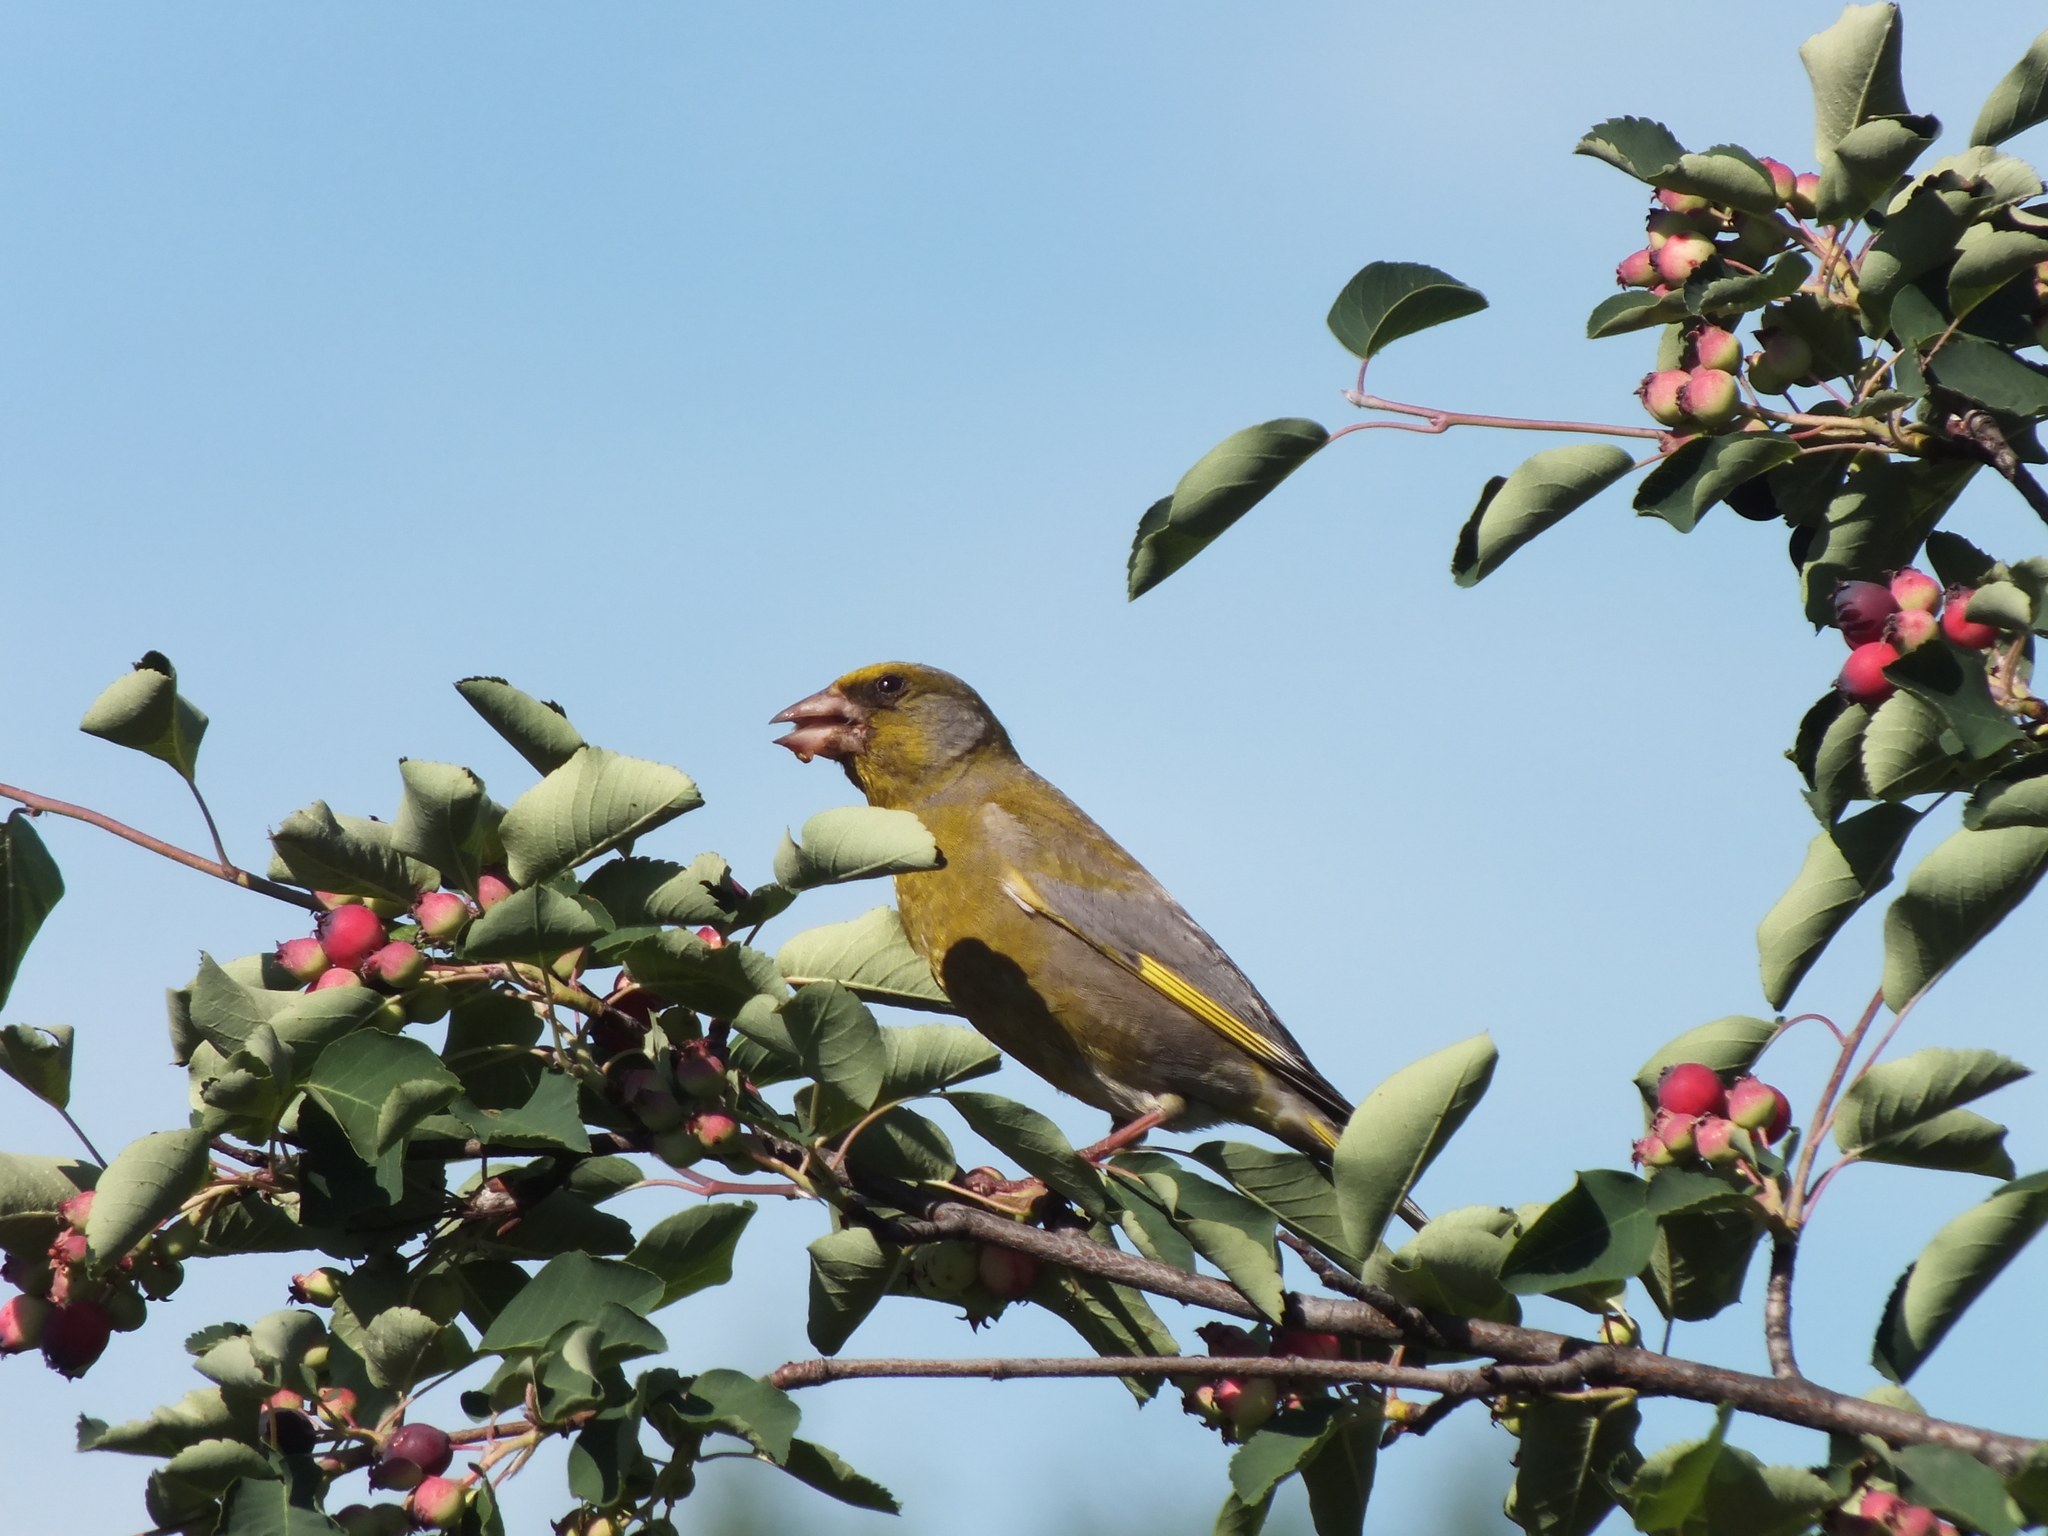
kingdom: Plantae
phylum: Tracheophyta
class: Liliopsida
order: Poales
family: Poaceae
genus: Chloris
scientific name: Chloris chloris
